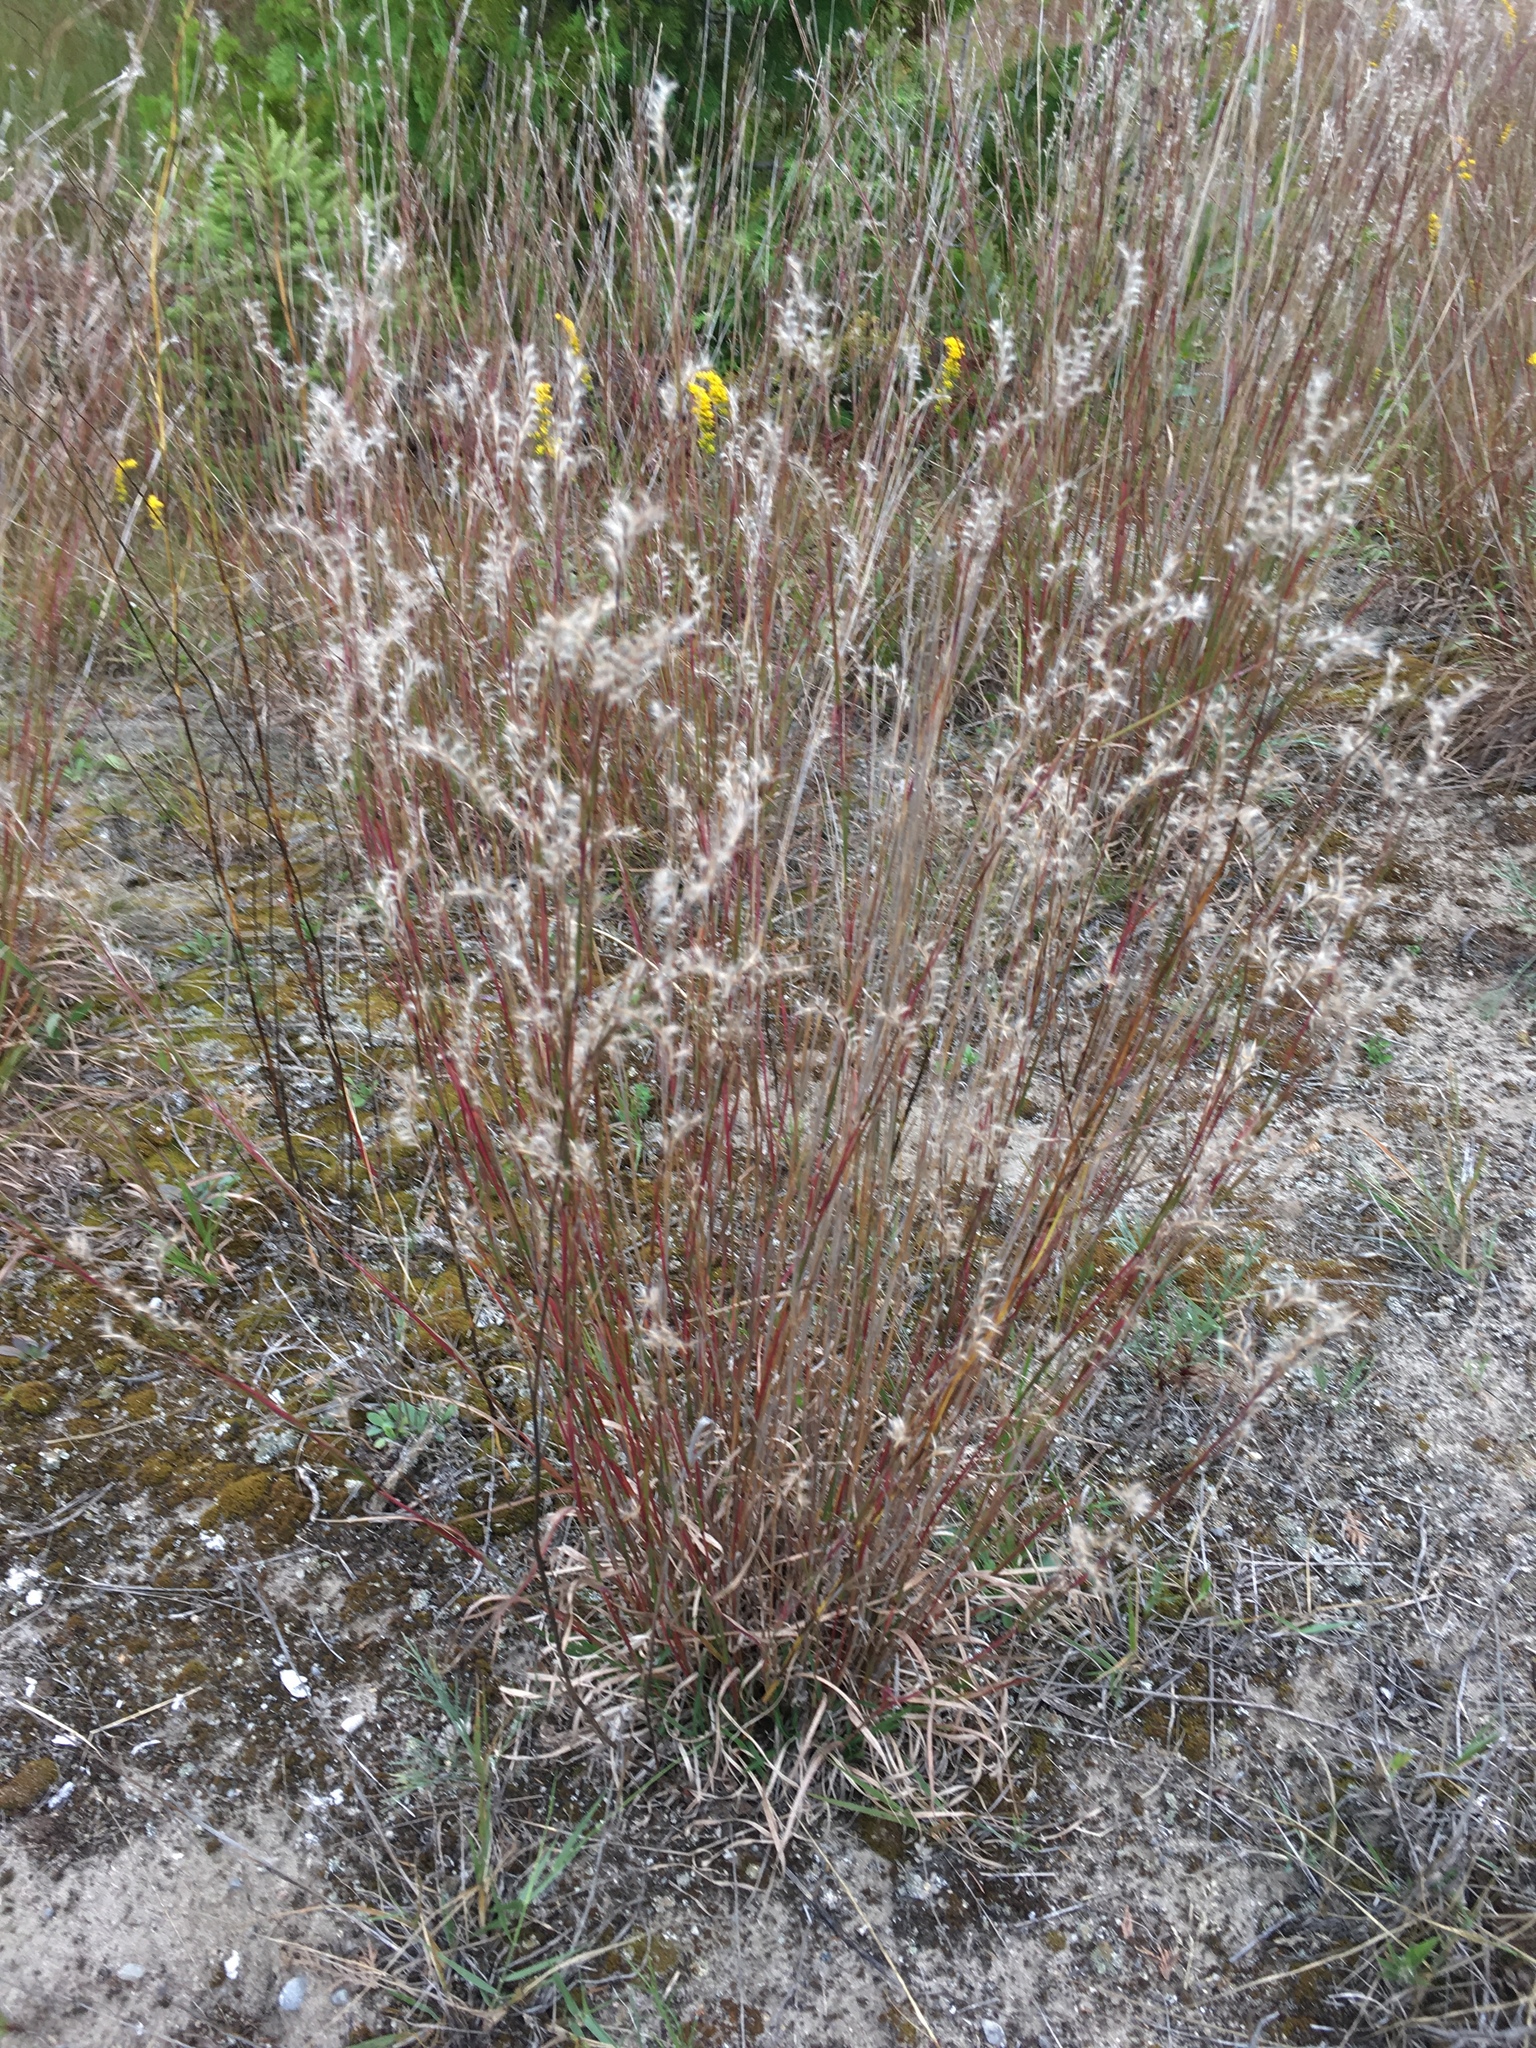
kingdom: Plantae
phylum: Tracheophyta
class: Liliopsida
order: Poales
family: Poaceae
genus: Schizachyrium
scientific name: Schizachyrium scoparium
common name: Little bluestem
